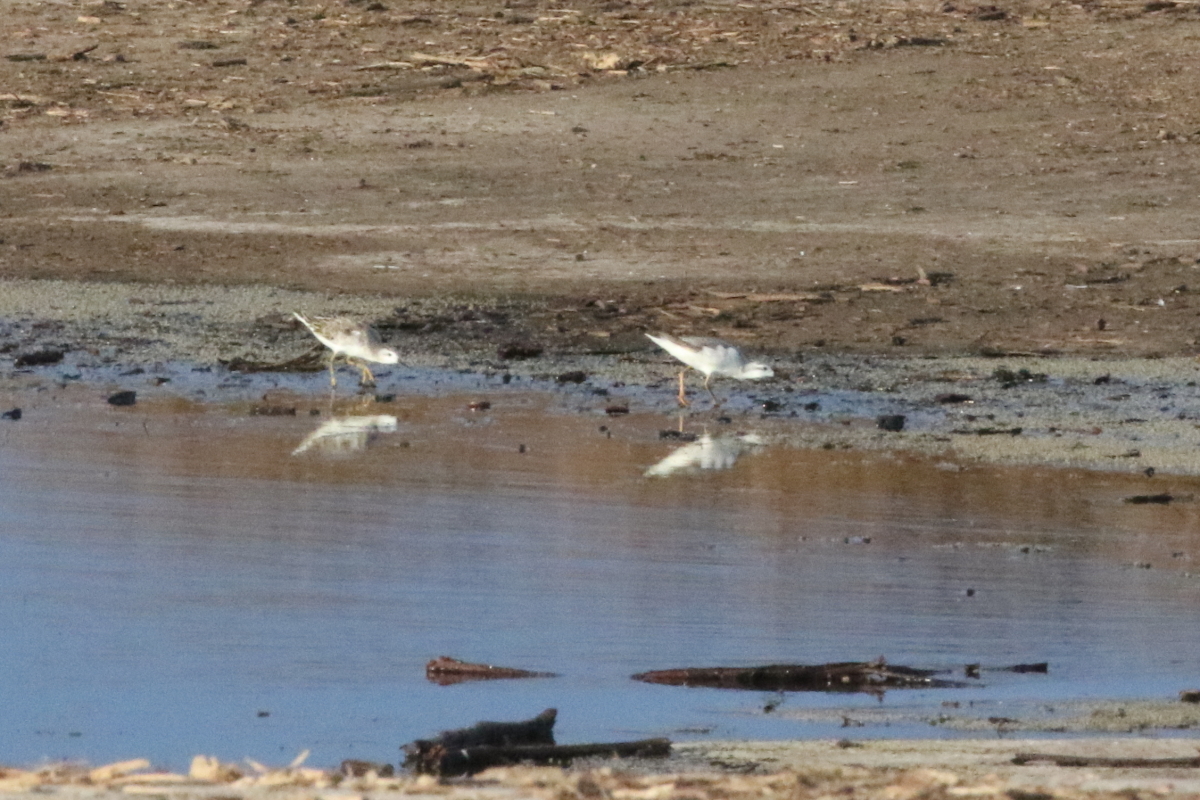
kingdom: Animalia
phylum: Chordata
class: Aves
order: Charadriiformes
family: Scolopacidae
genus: Phalaropus
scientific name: Phalaropus tricolor
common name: Wilson's phalarope
